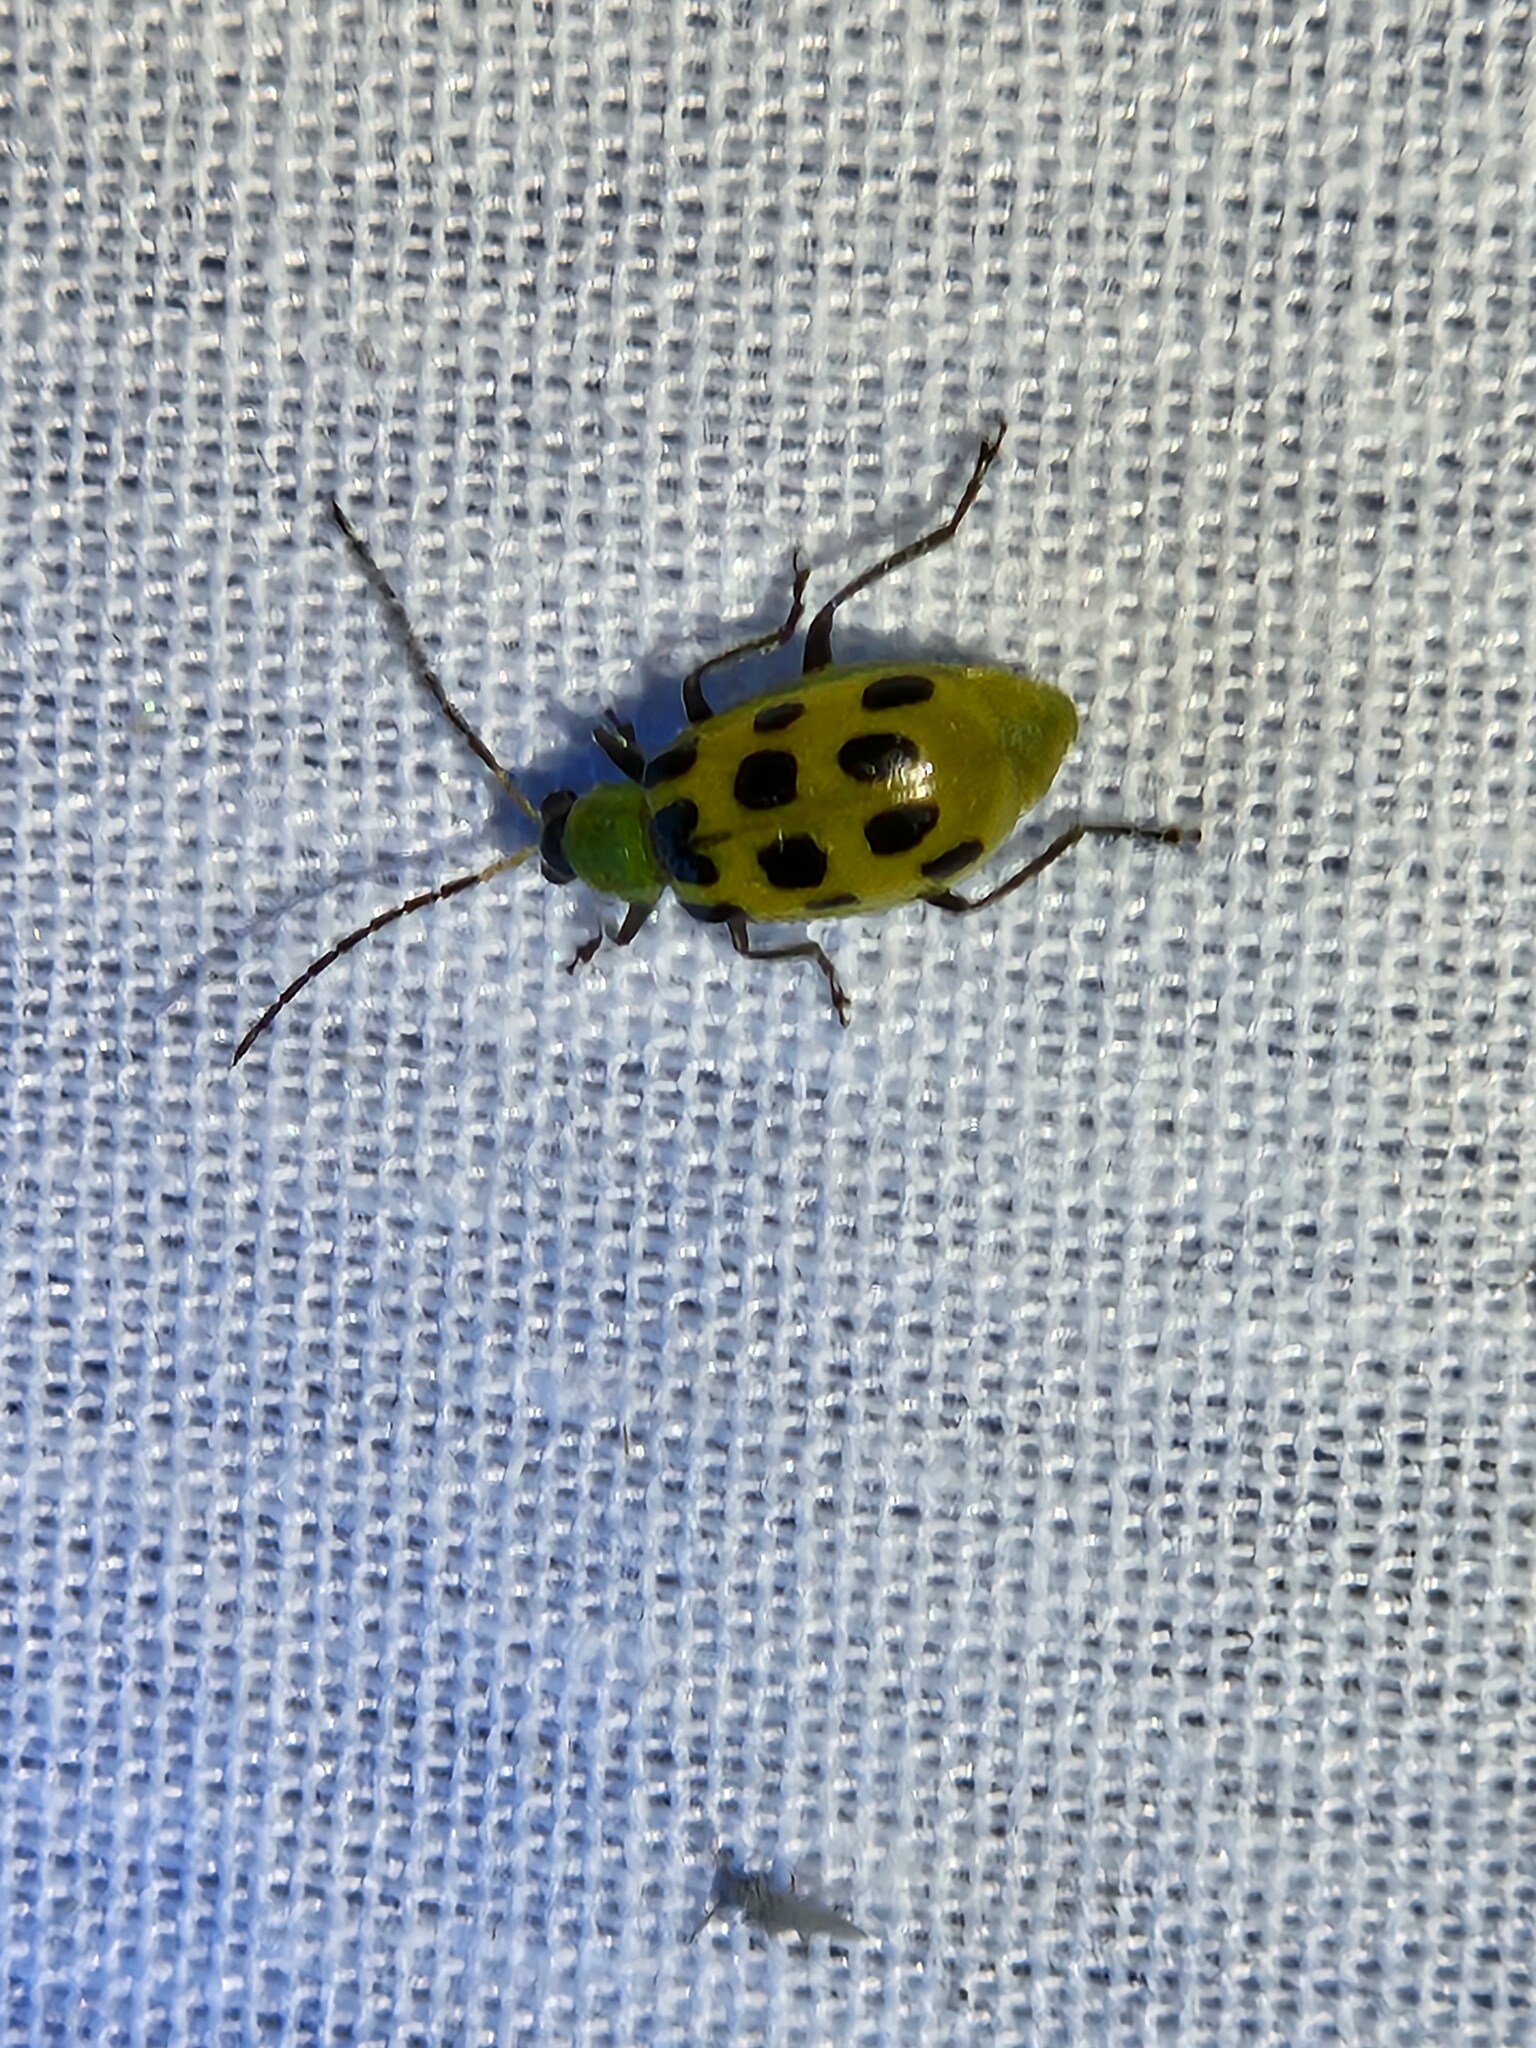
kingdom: Animalia
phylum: Arthropoda
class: Insecta
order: Coleoptera
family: Chrysomelidae
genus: Diabrotica
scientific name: Diabrotica undecimpunctata
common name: Spotted cucumber beetle
